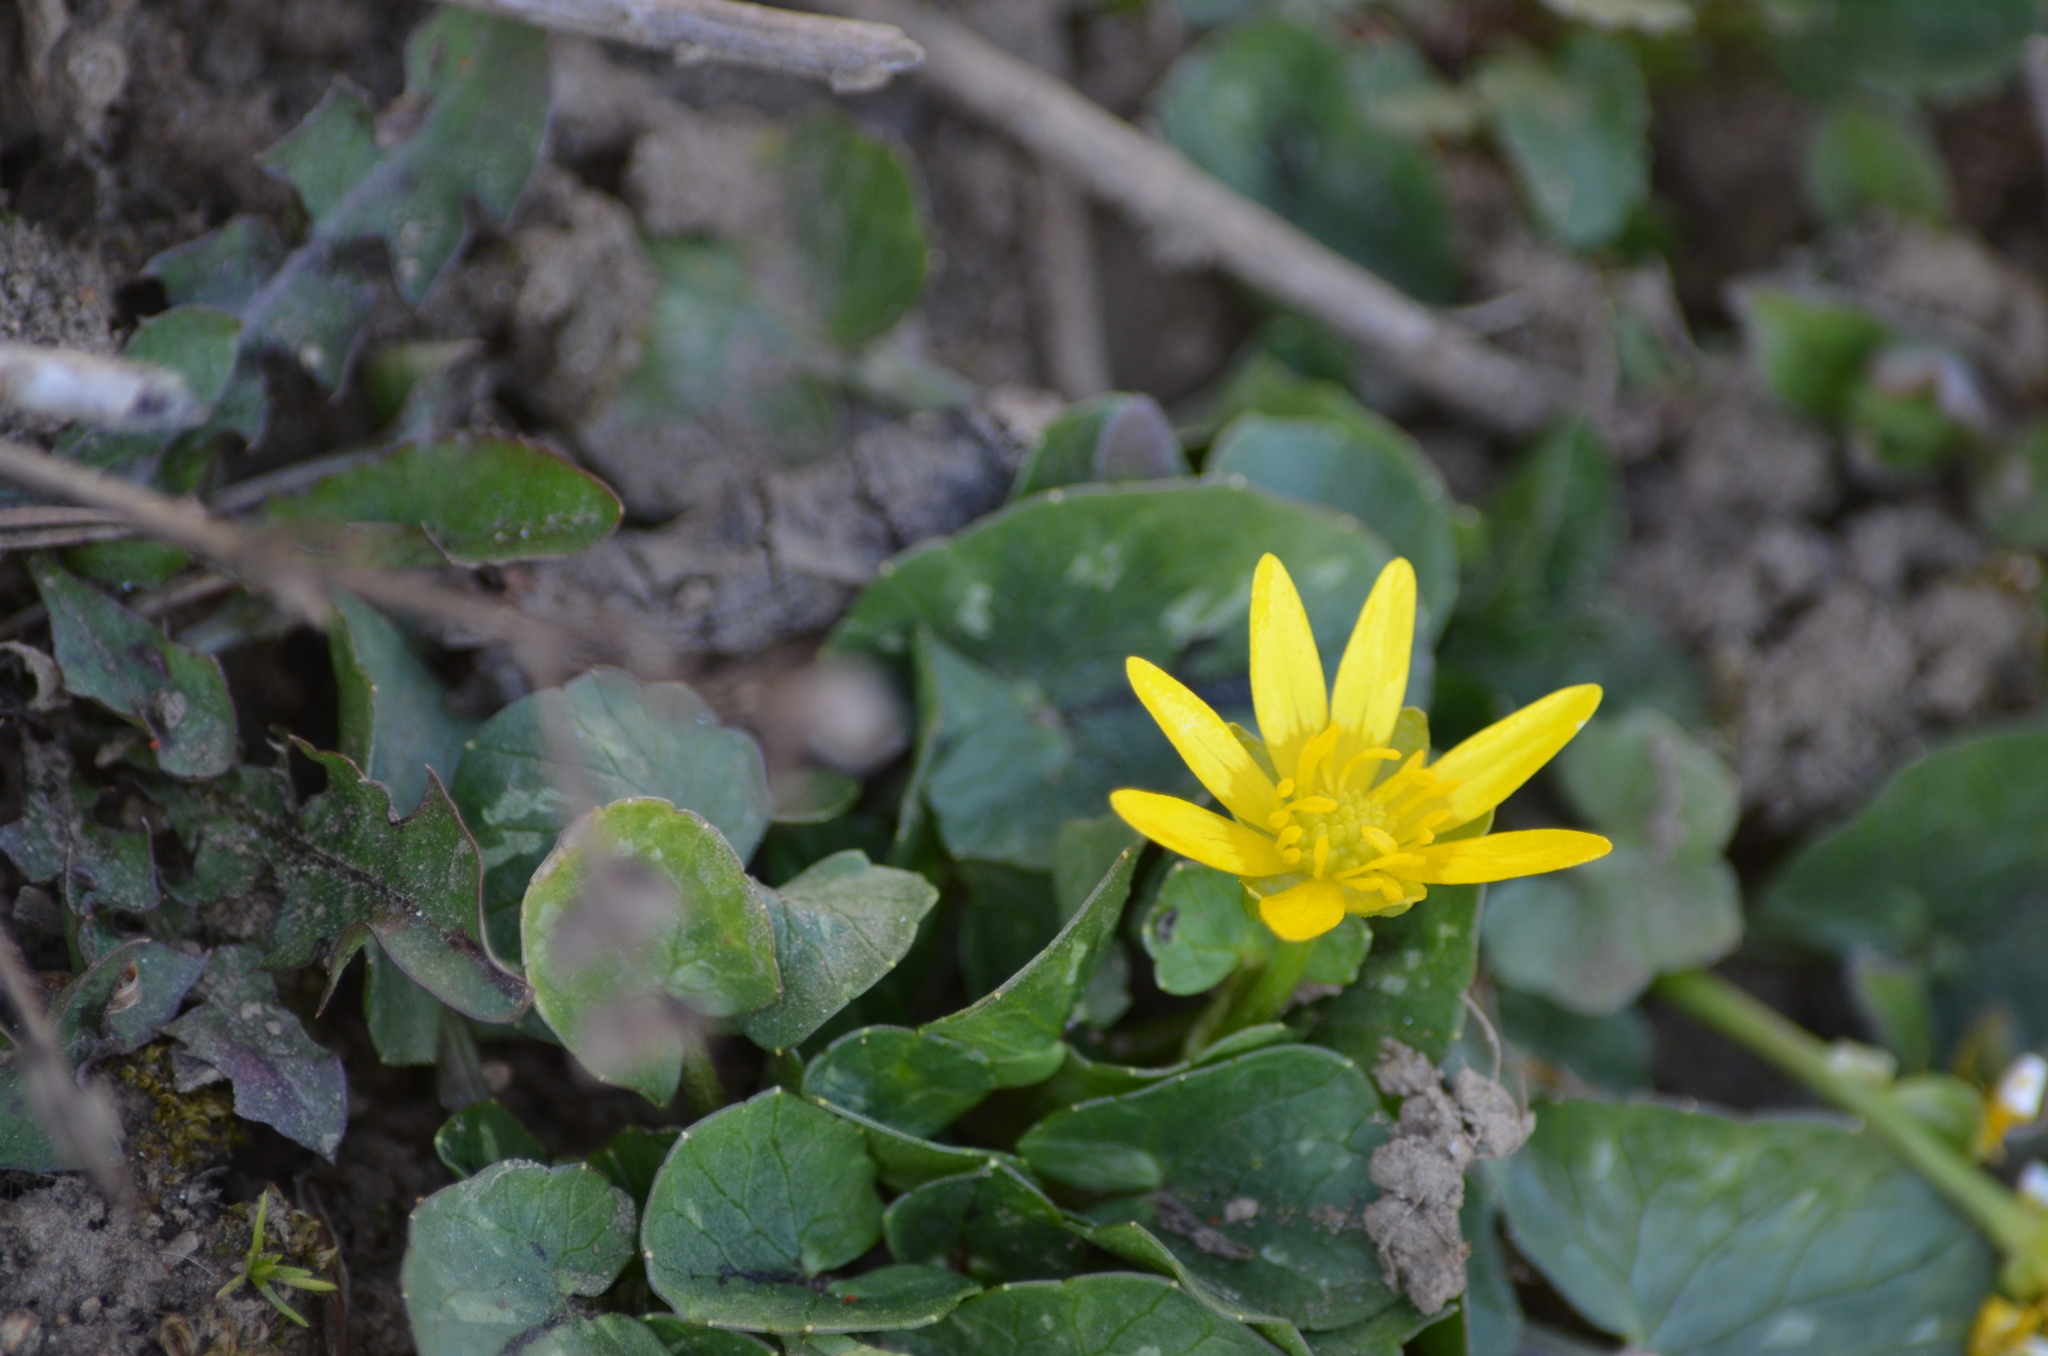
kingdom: Plantae
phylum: Tracheophyta
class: Magnoliopsida
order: Ranunculales
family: Ranunculaceae
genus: Ficaria
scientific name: Ficaria verna
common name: Lesser celandine
